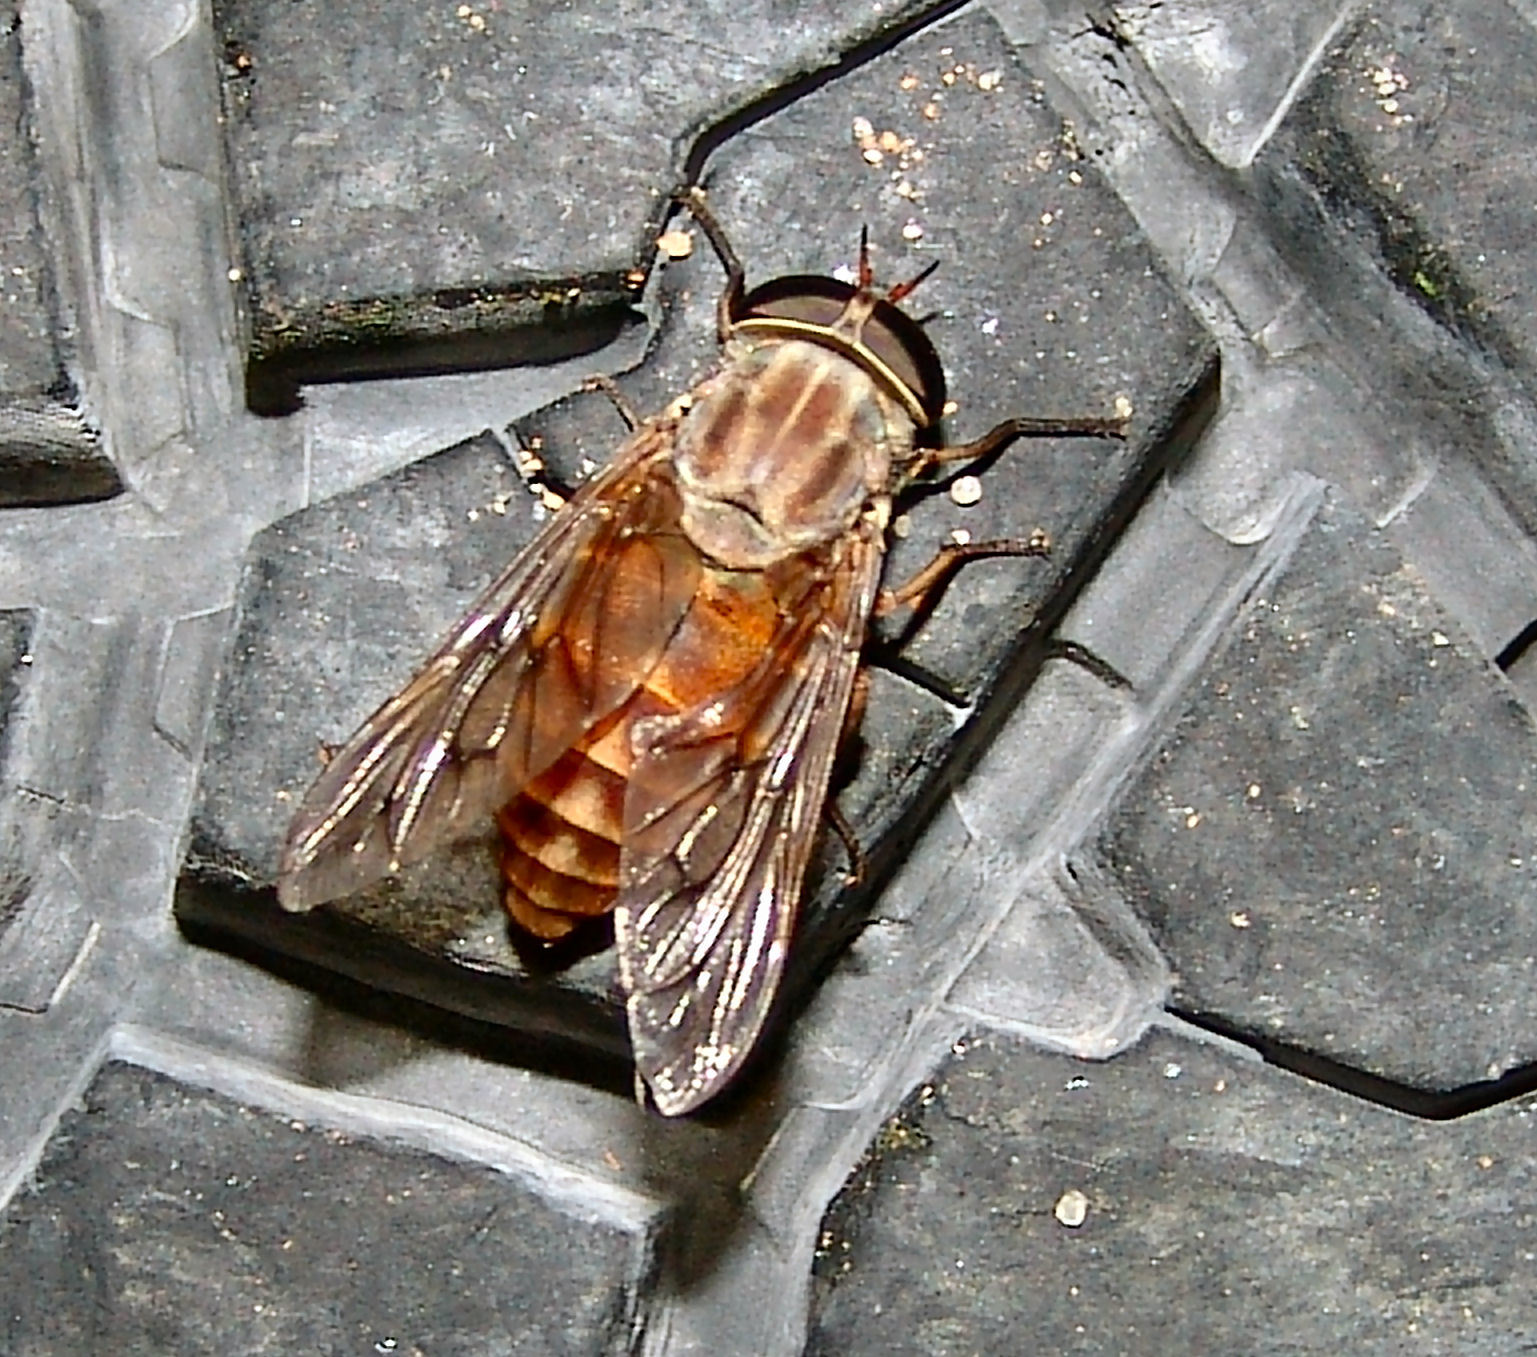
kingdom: Animalia
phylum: Arthropoda
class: Insecta
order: Diptera
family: Tabanidae
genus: Tabanus
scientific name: Tabanus limbatineuris
